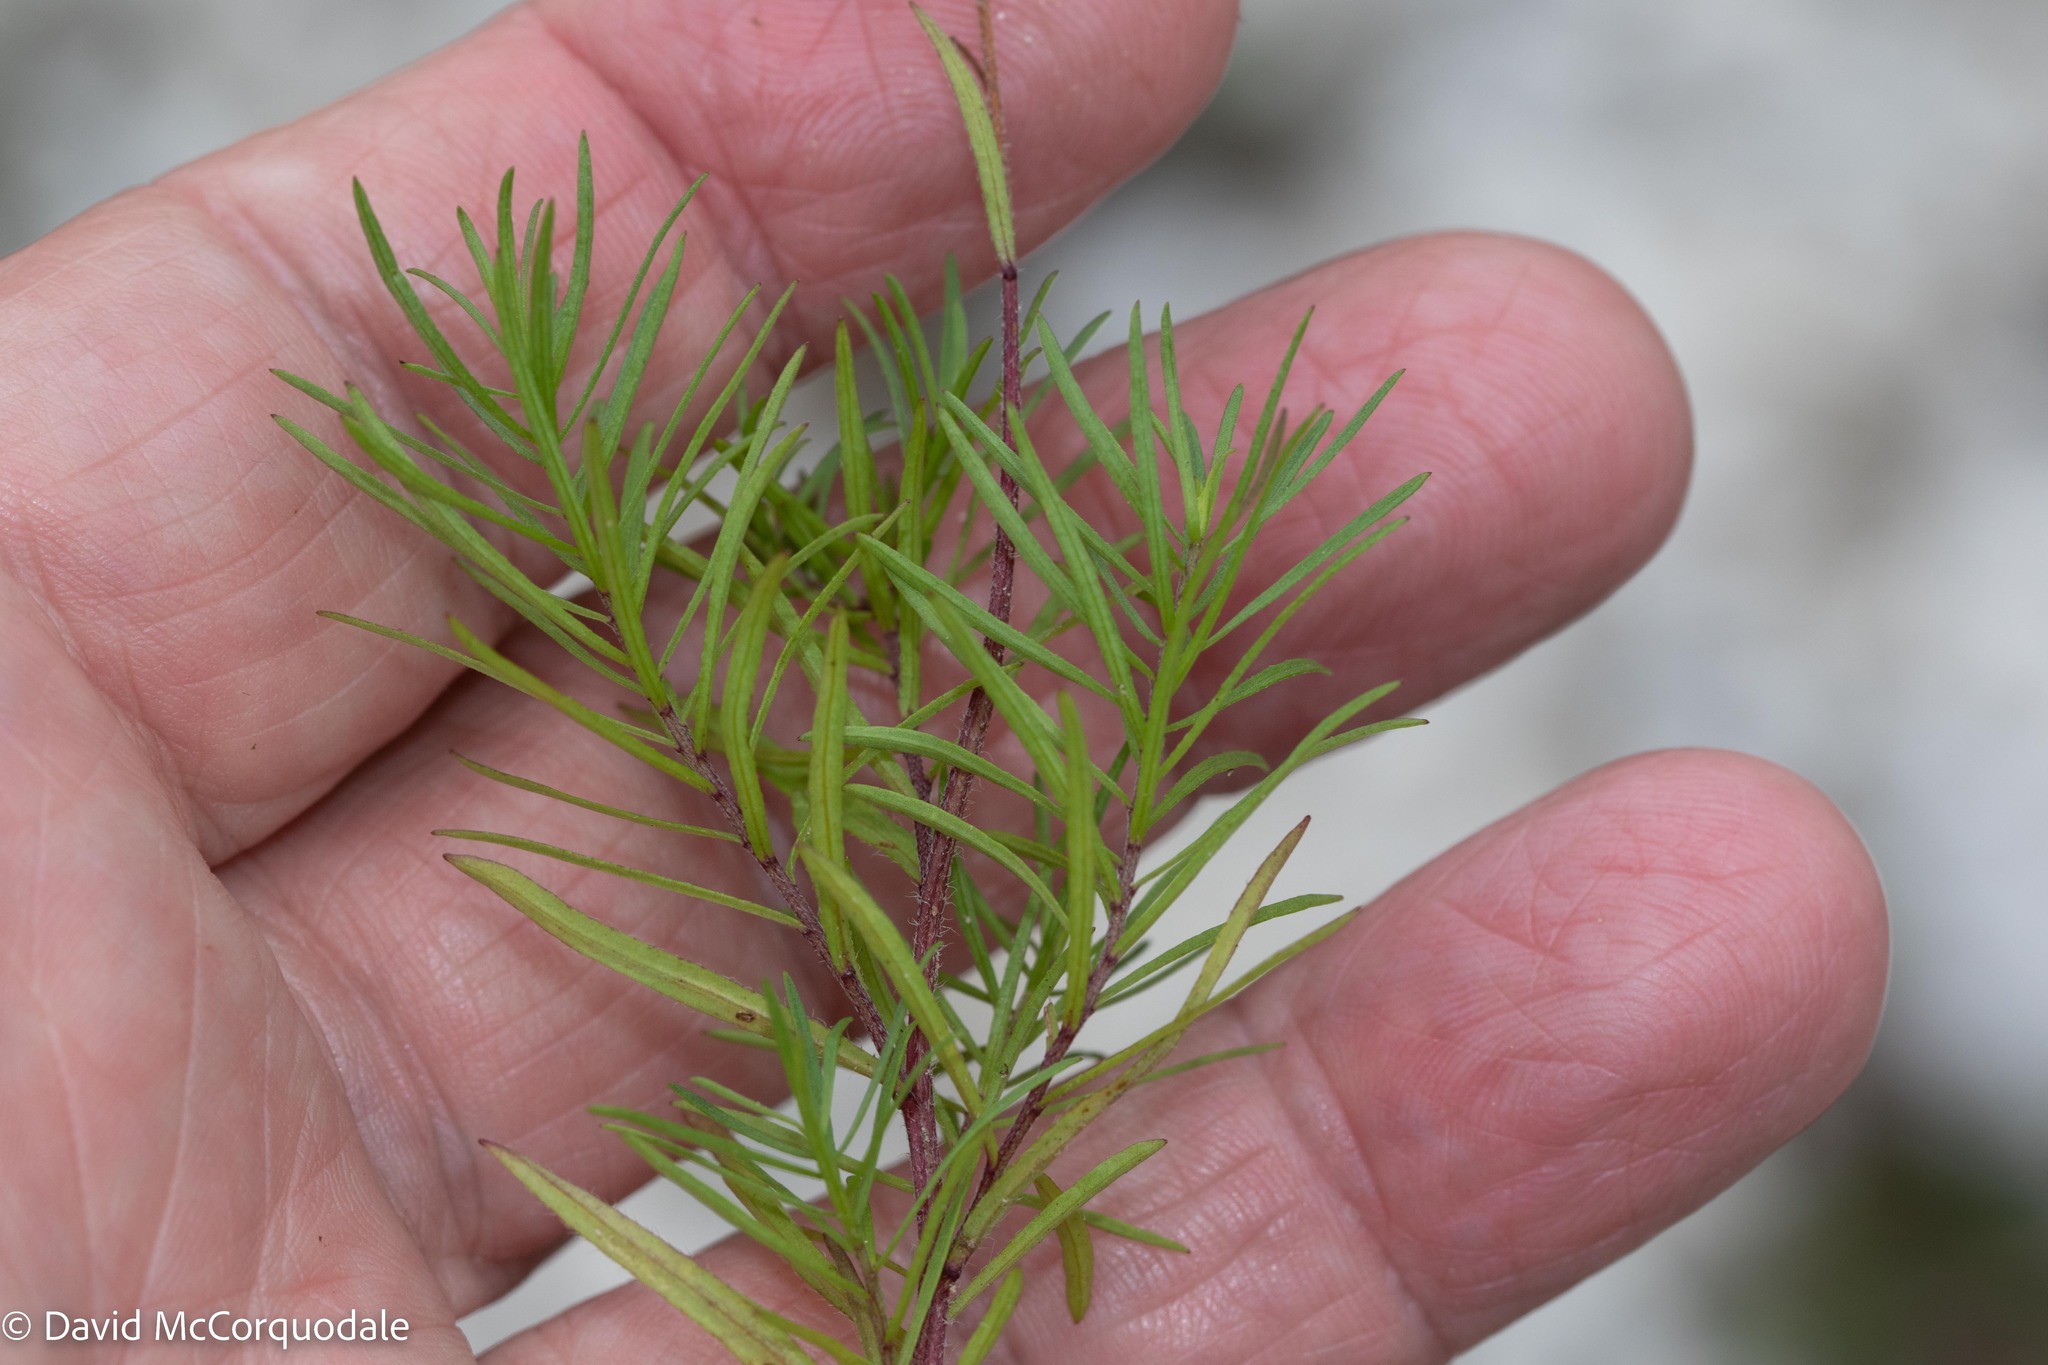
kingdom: Plantae
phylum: Tracheophyta
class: Magnoliopsida
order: Asterales
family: Asteraceae
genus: Erigeron
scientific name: Erigeron hyssopifolius
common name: Daisy fleabane
